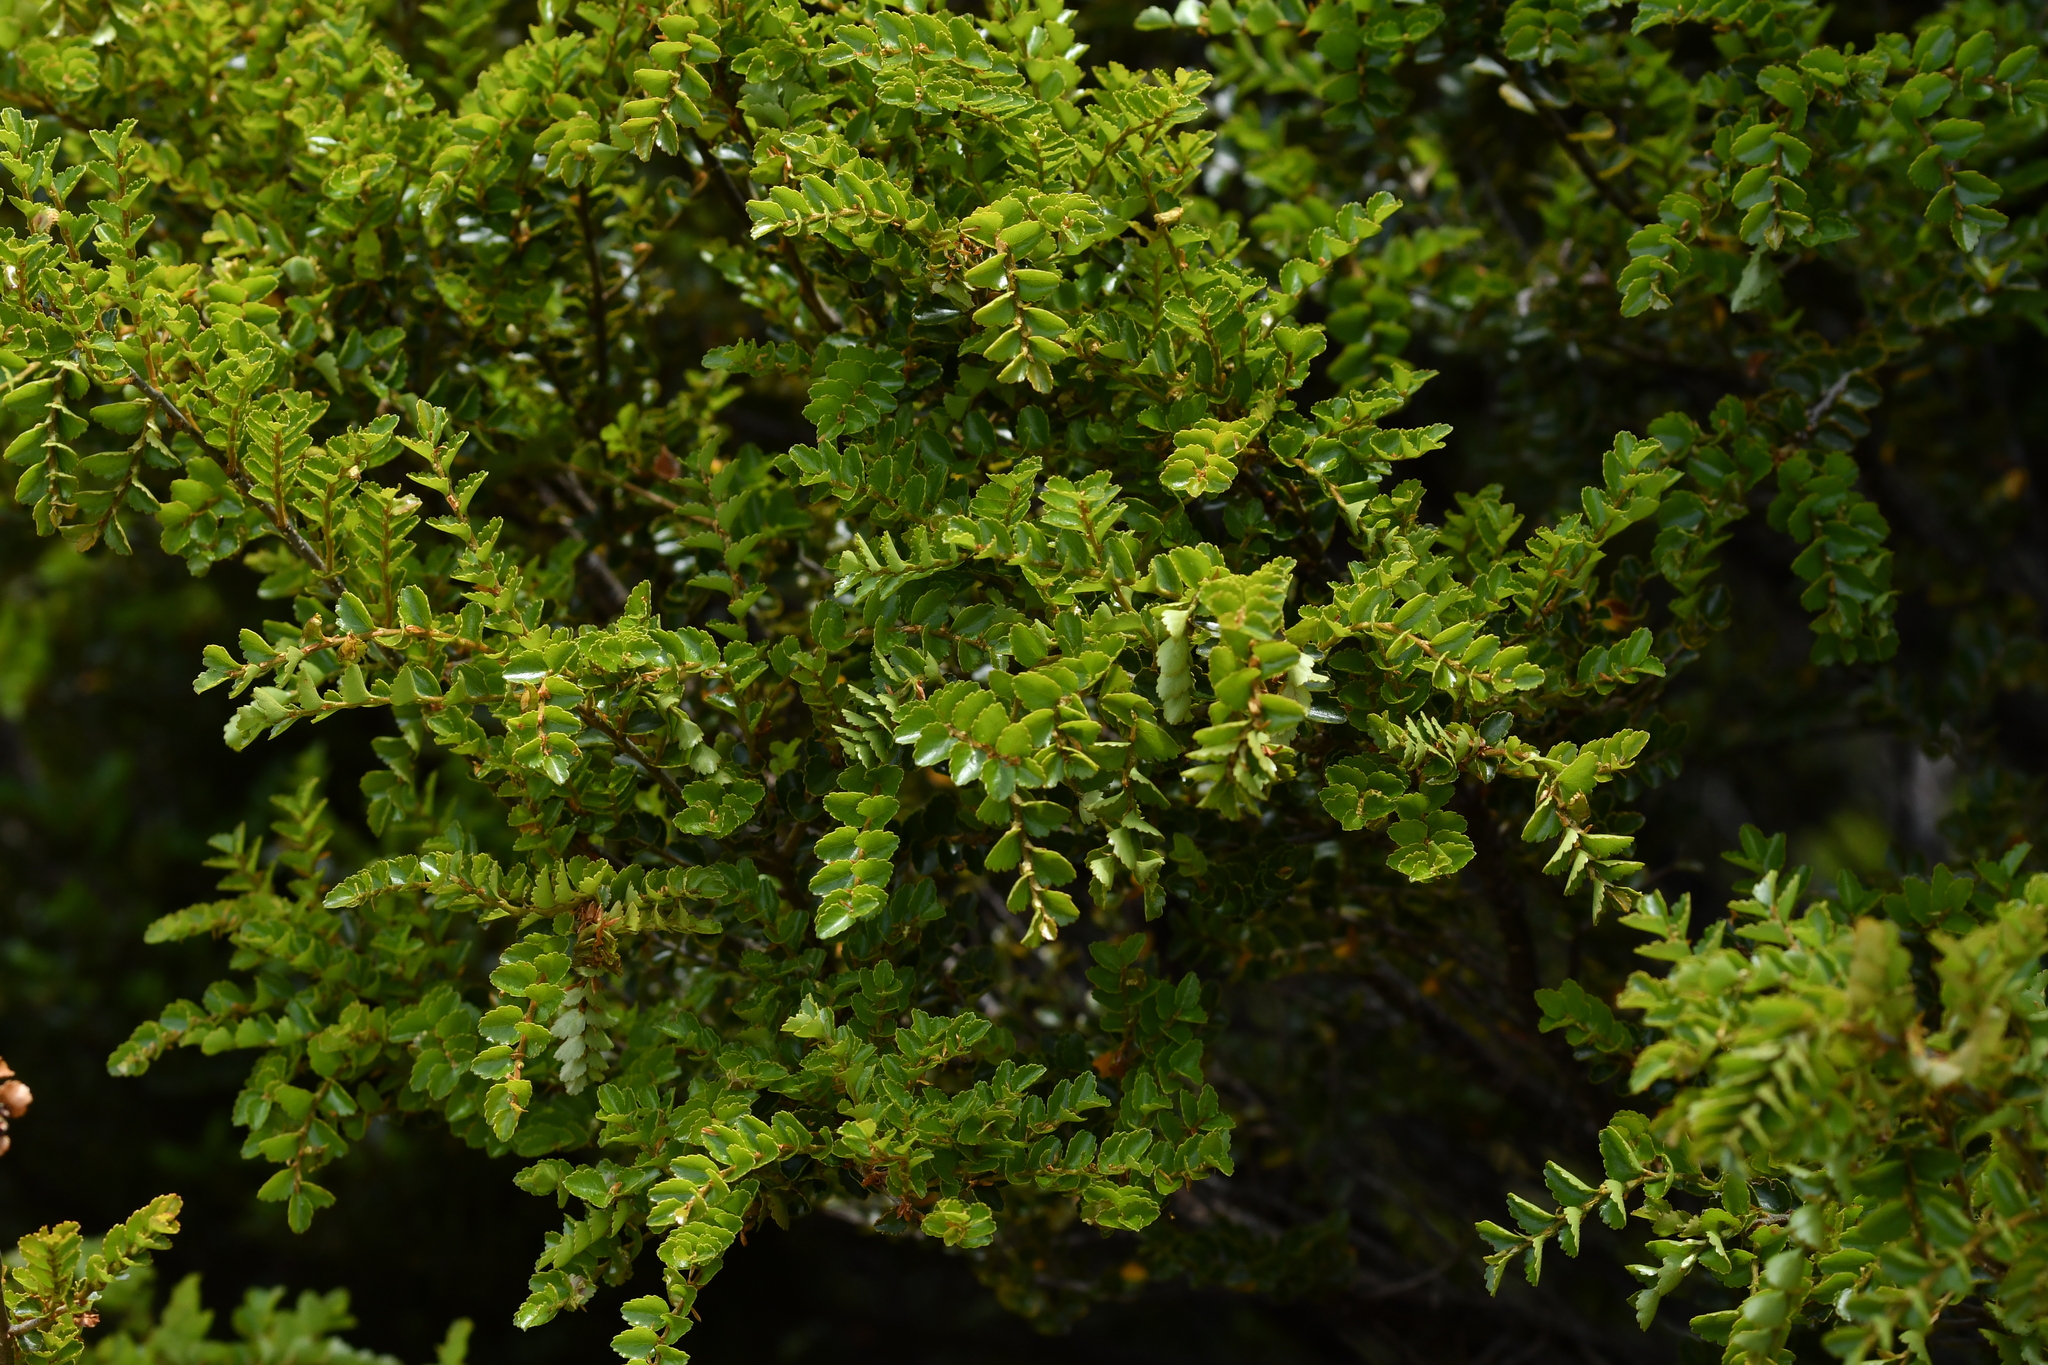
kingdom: Plantae
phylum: Tracheophyta
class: Magnoliopsida
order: Fagales
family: Nothofagaceae
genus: Nothofagus
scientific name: Nothofagus menziesii
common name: Silver beech
